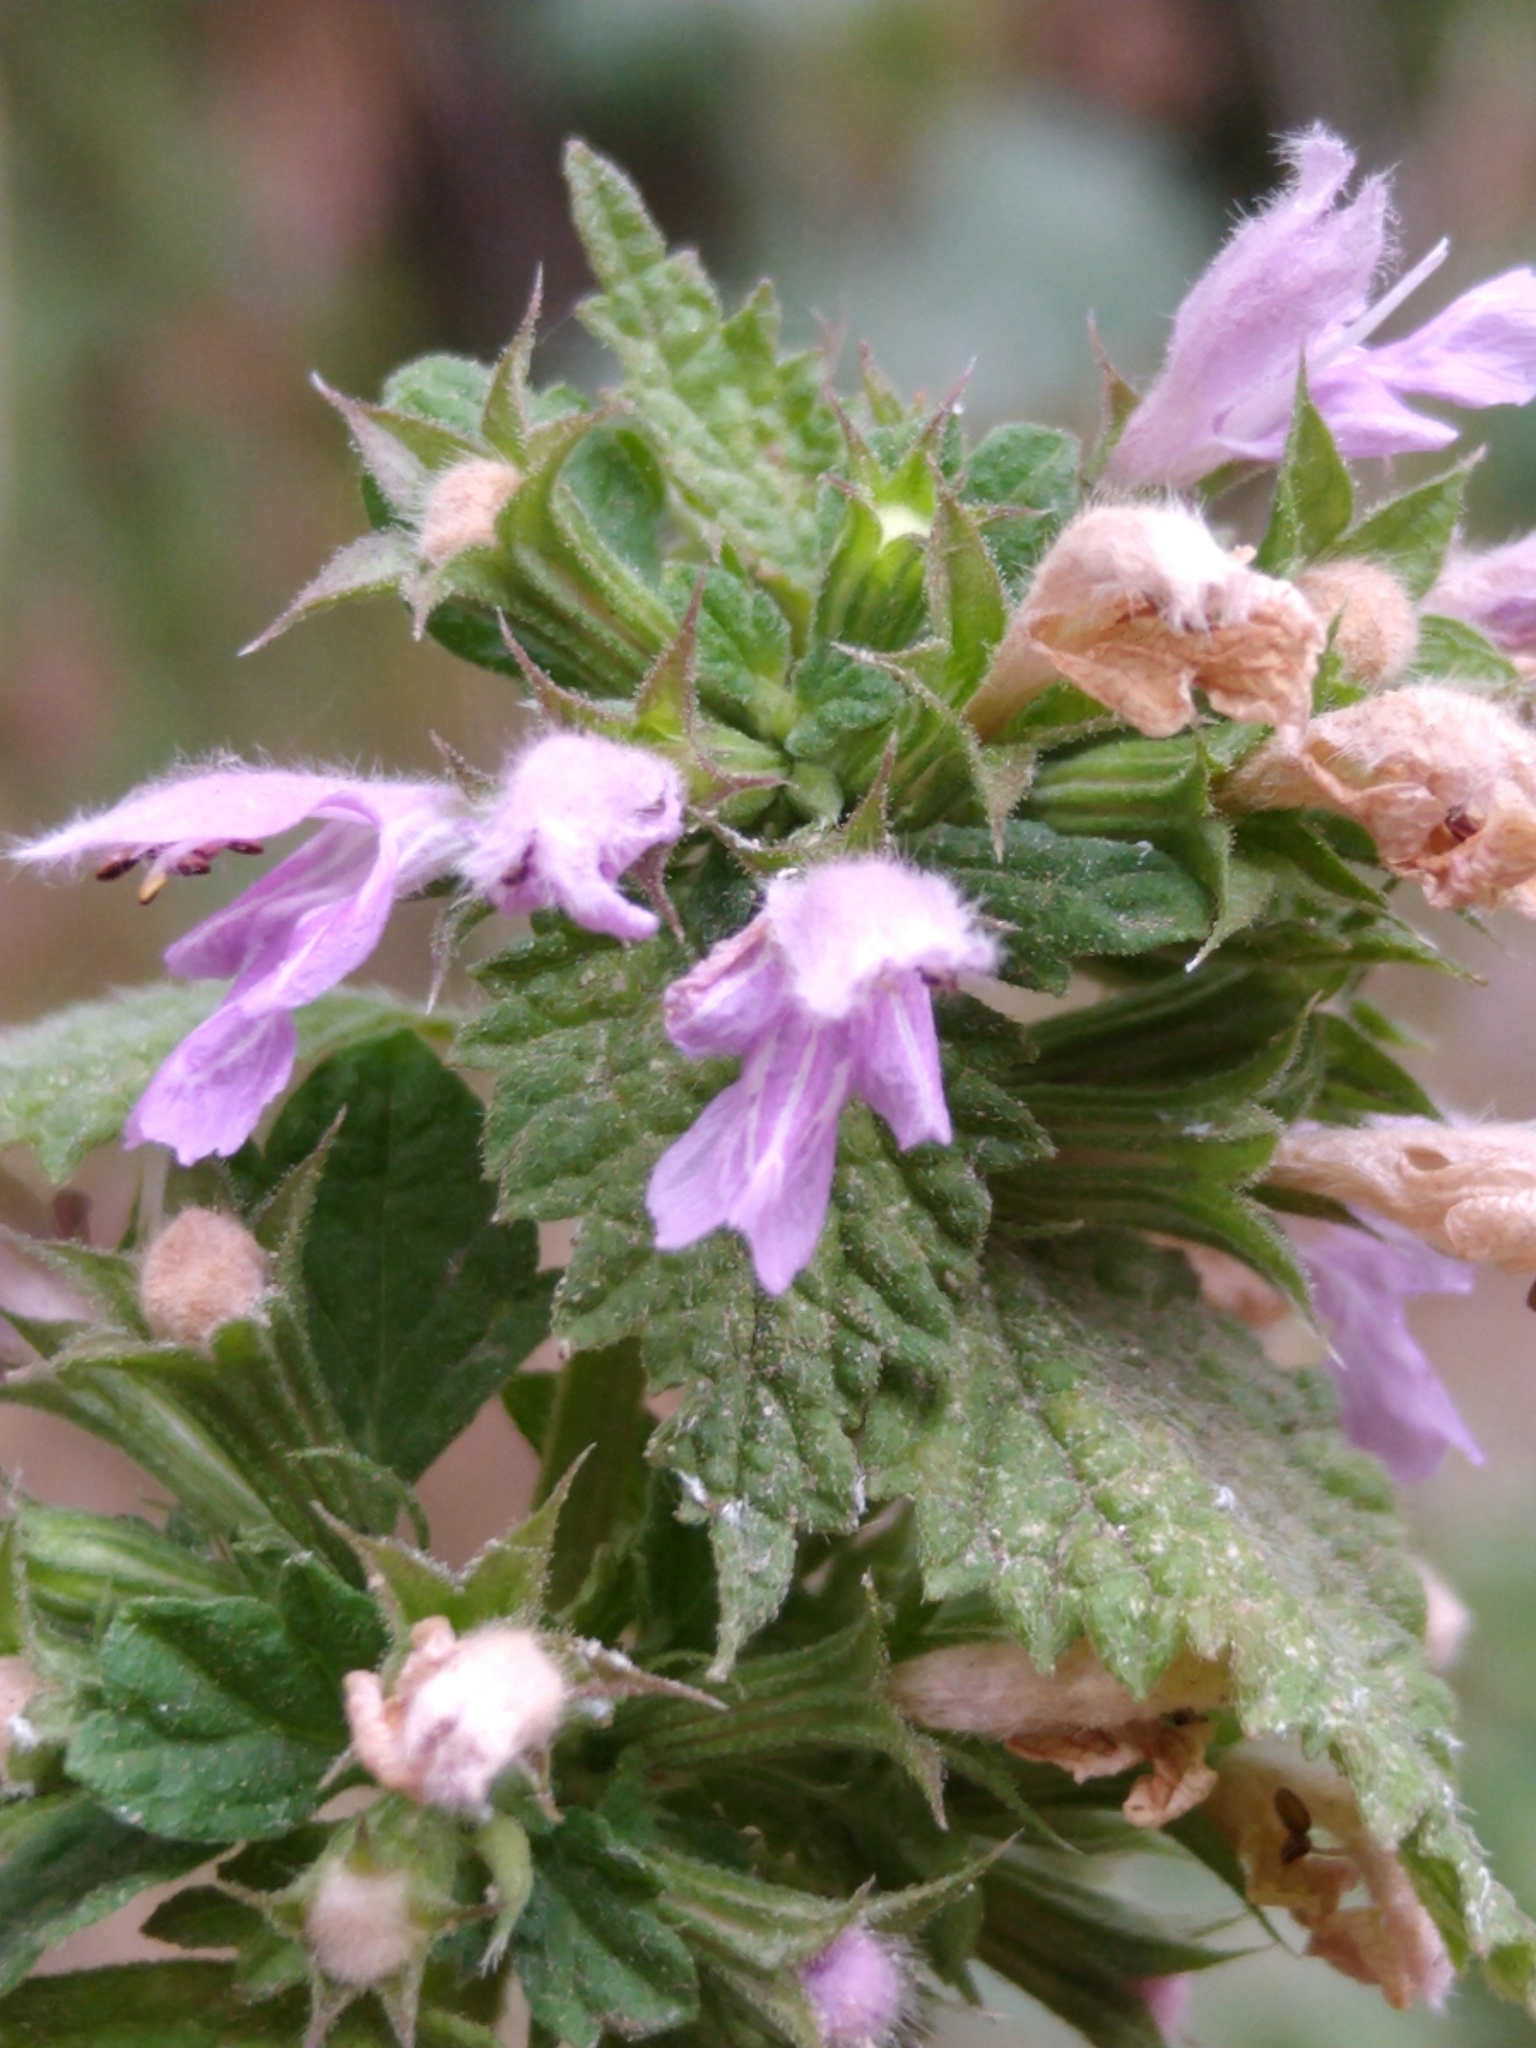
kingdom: Plantae
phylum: Tracheophyta
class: Magnoliopsida
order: Lamiales
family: Lamiaceae
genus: Ballota
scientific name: Ballota nigra
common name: Black horehound
